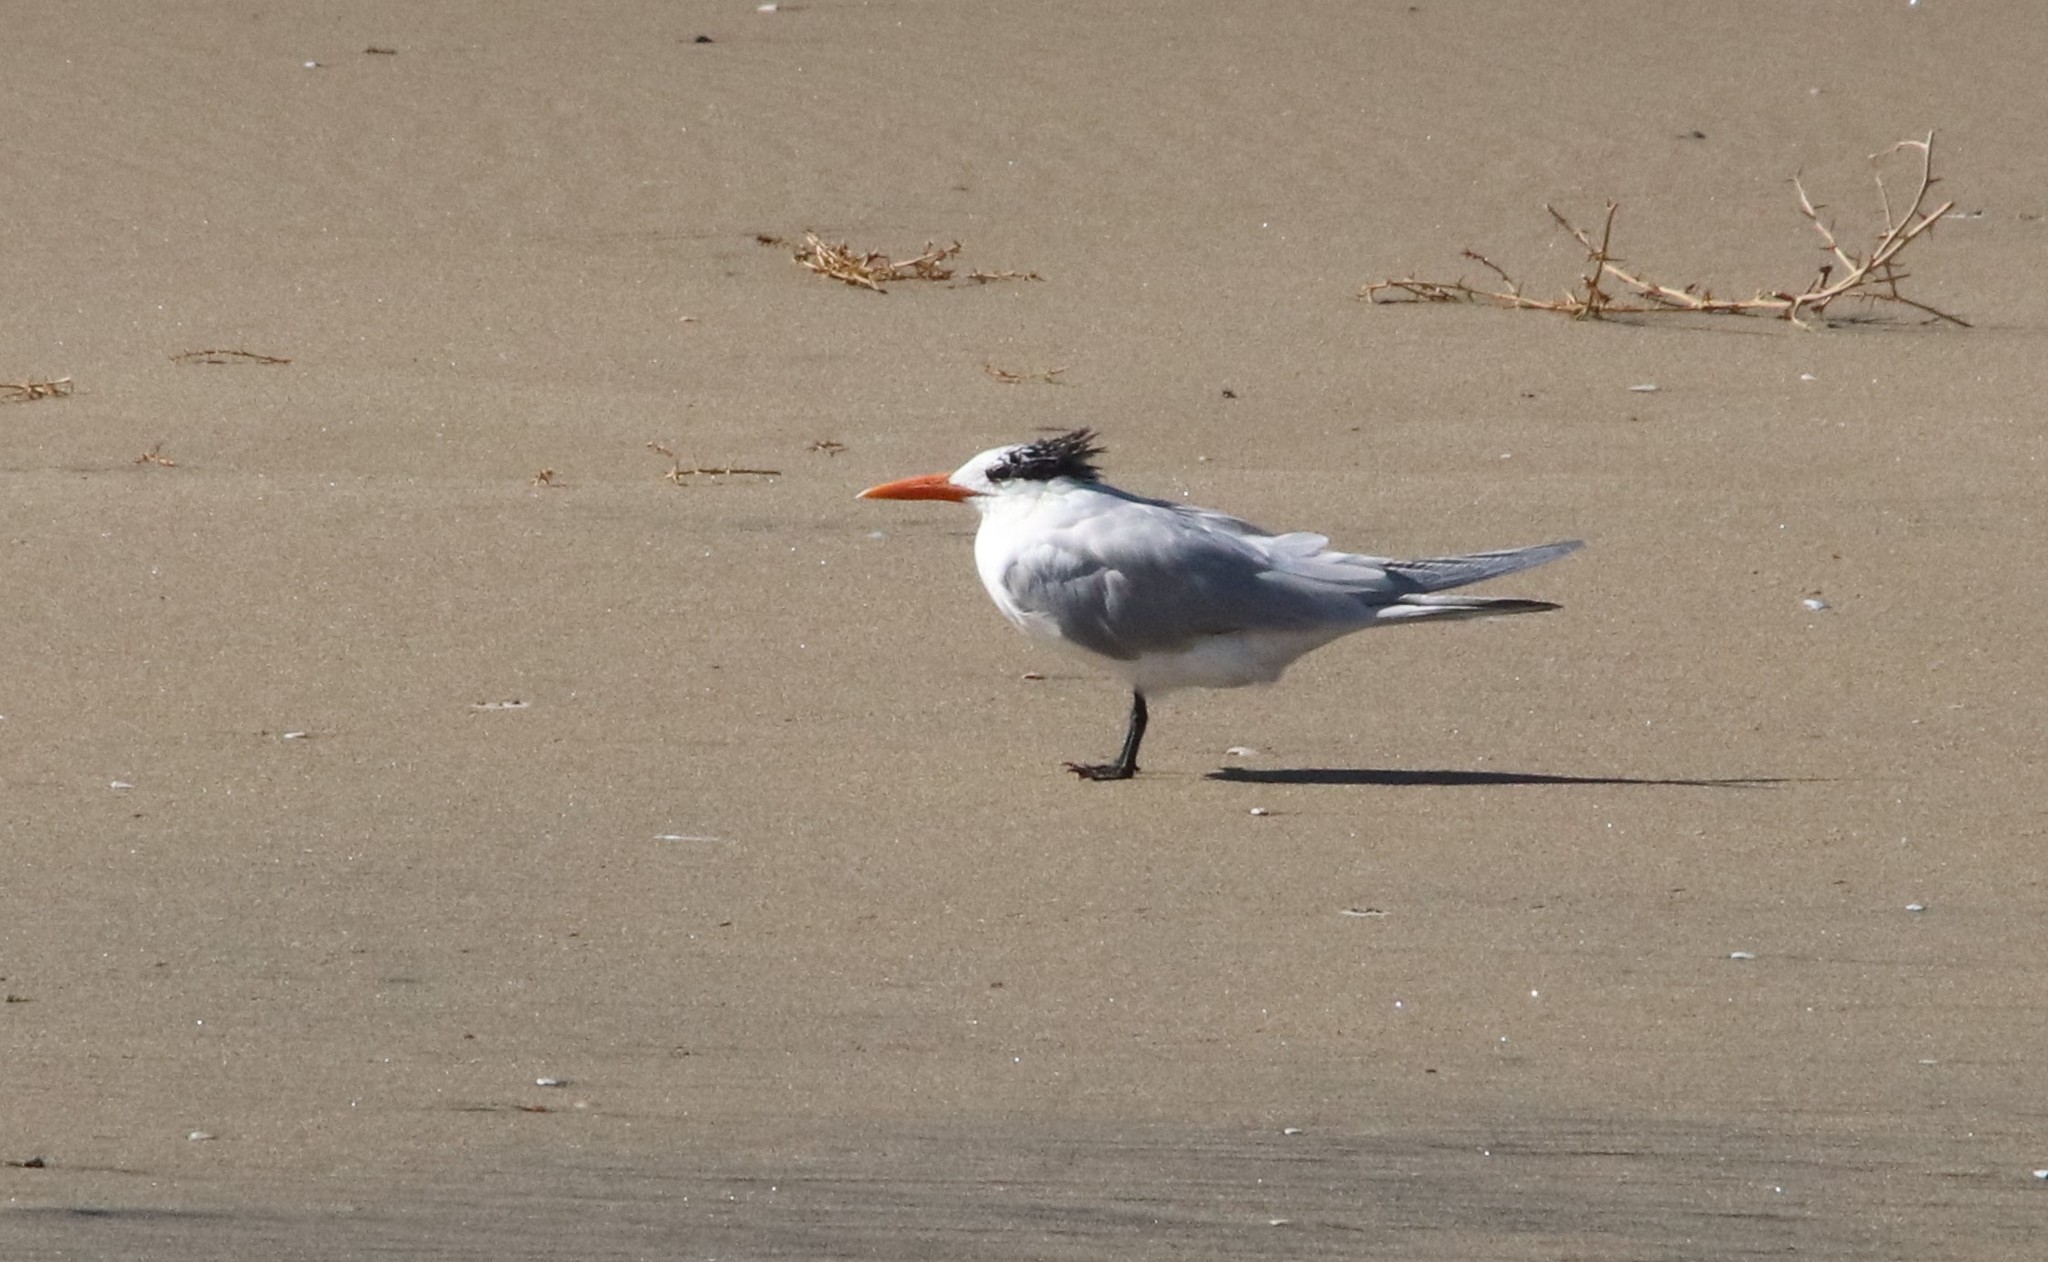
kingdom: Animalia
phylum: Chordata
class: Aves
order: Charadriiformes
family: Laridae
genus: Thalasseus
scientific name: Thalasseus maximus
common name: Royal tern
